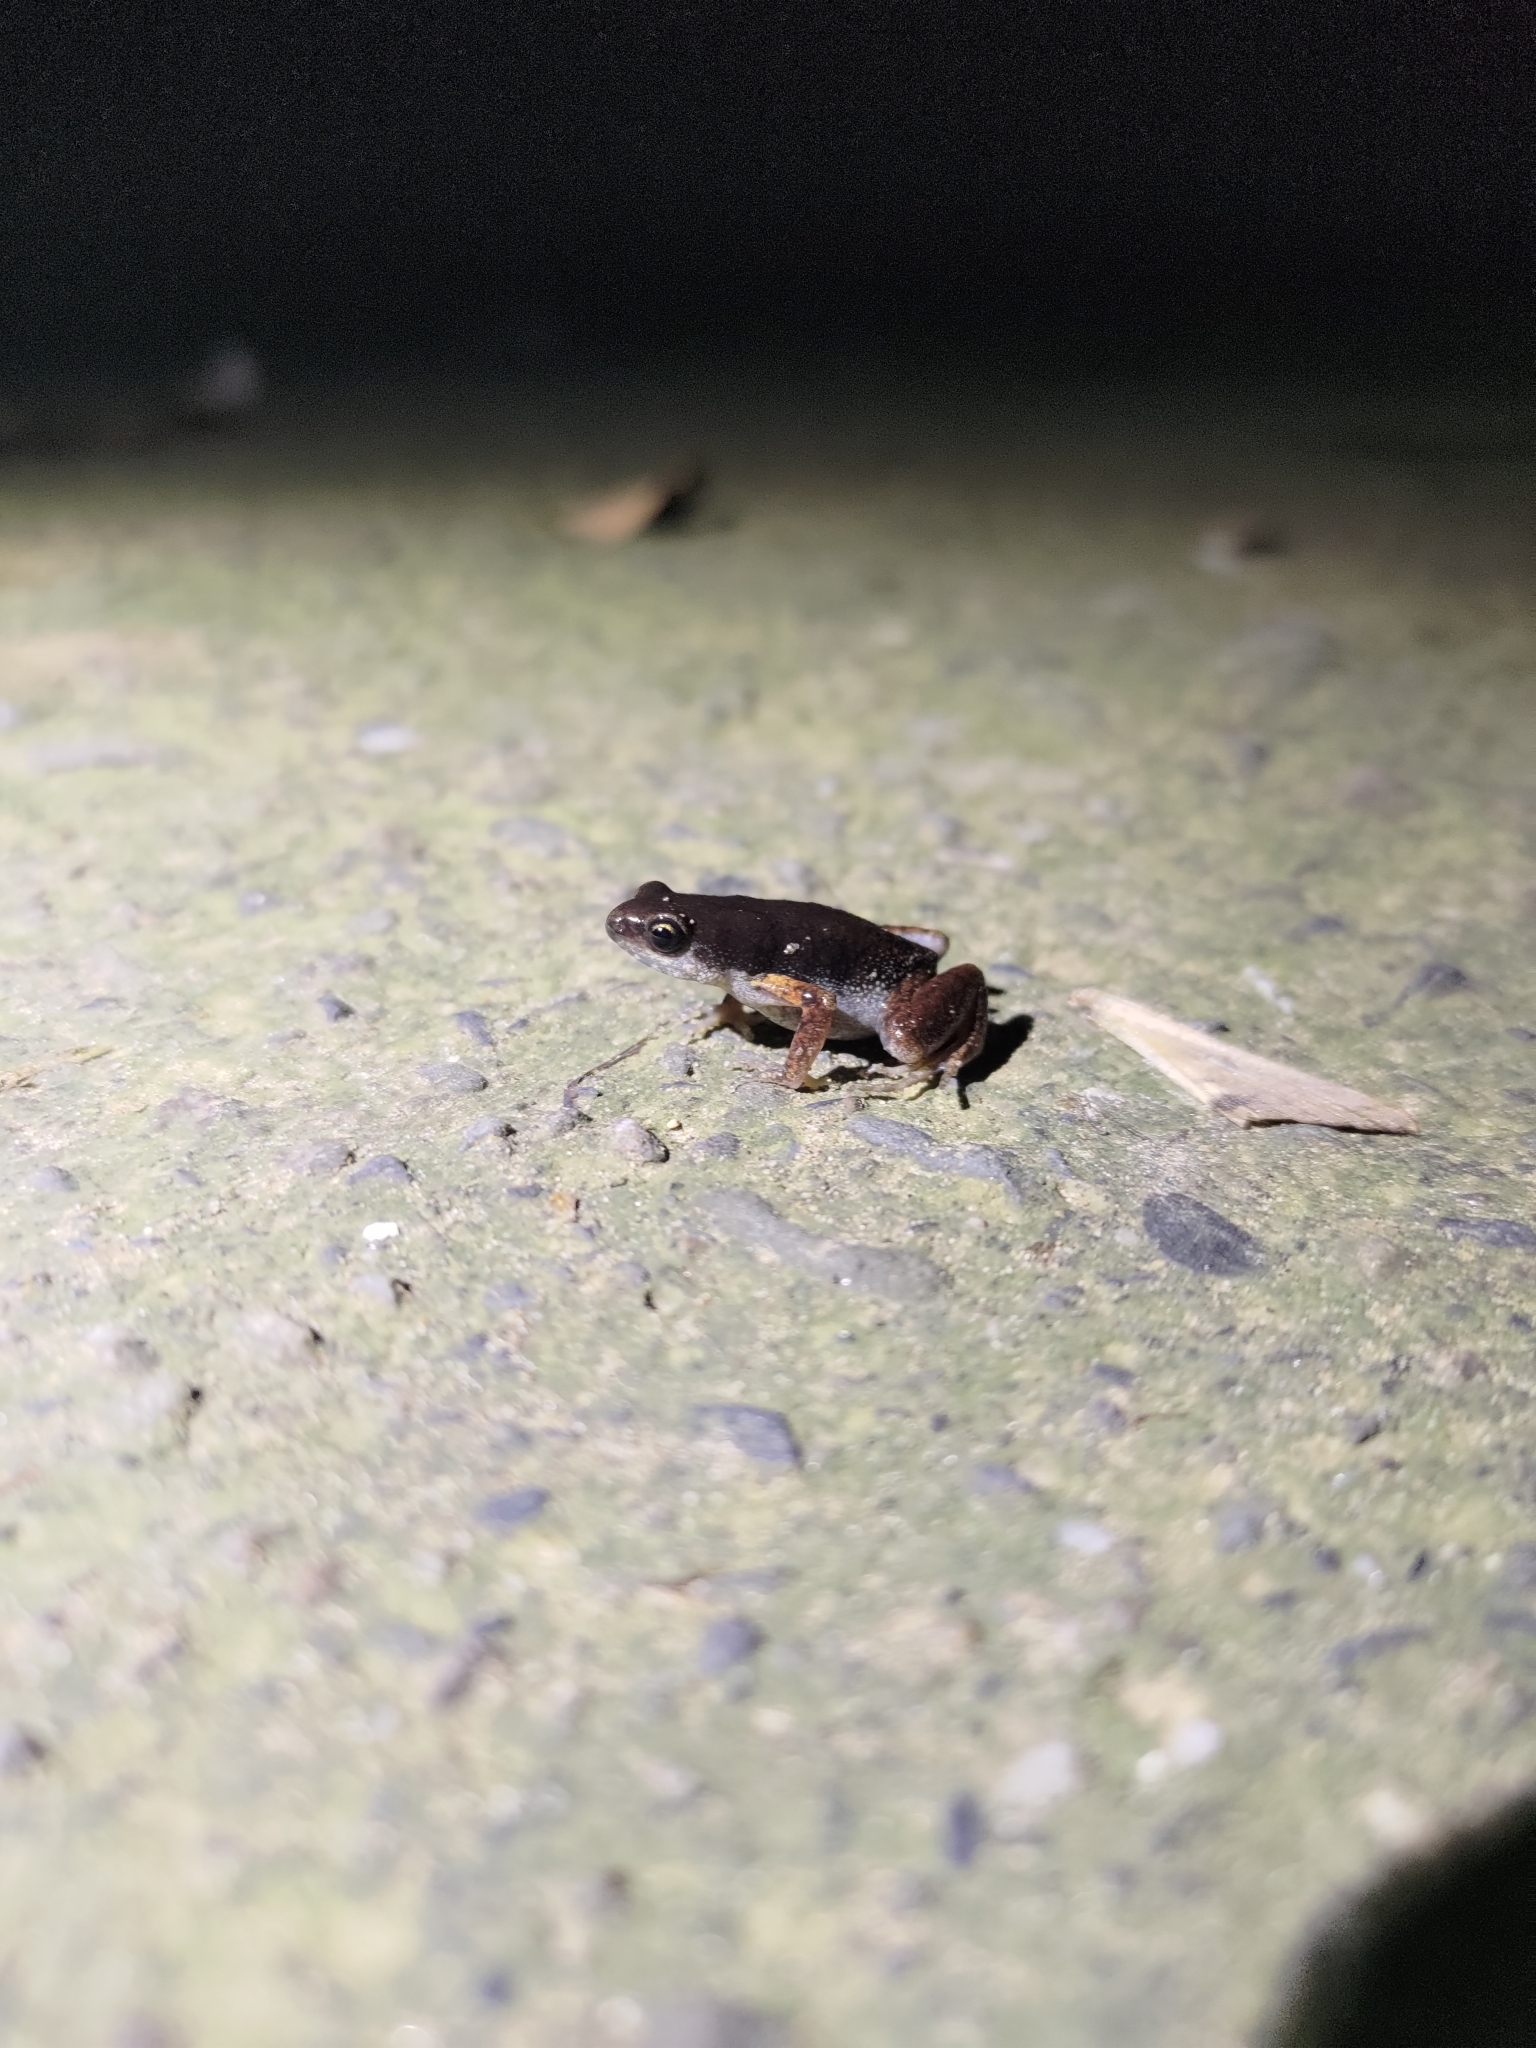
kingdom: Animalia
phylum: Chordata
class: Amphibia
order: Anura
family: Microhylidae
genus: Micryletta
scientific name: Micryletta steinegeri
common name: Stejneger's paddy frog
